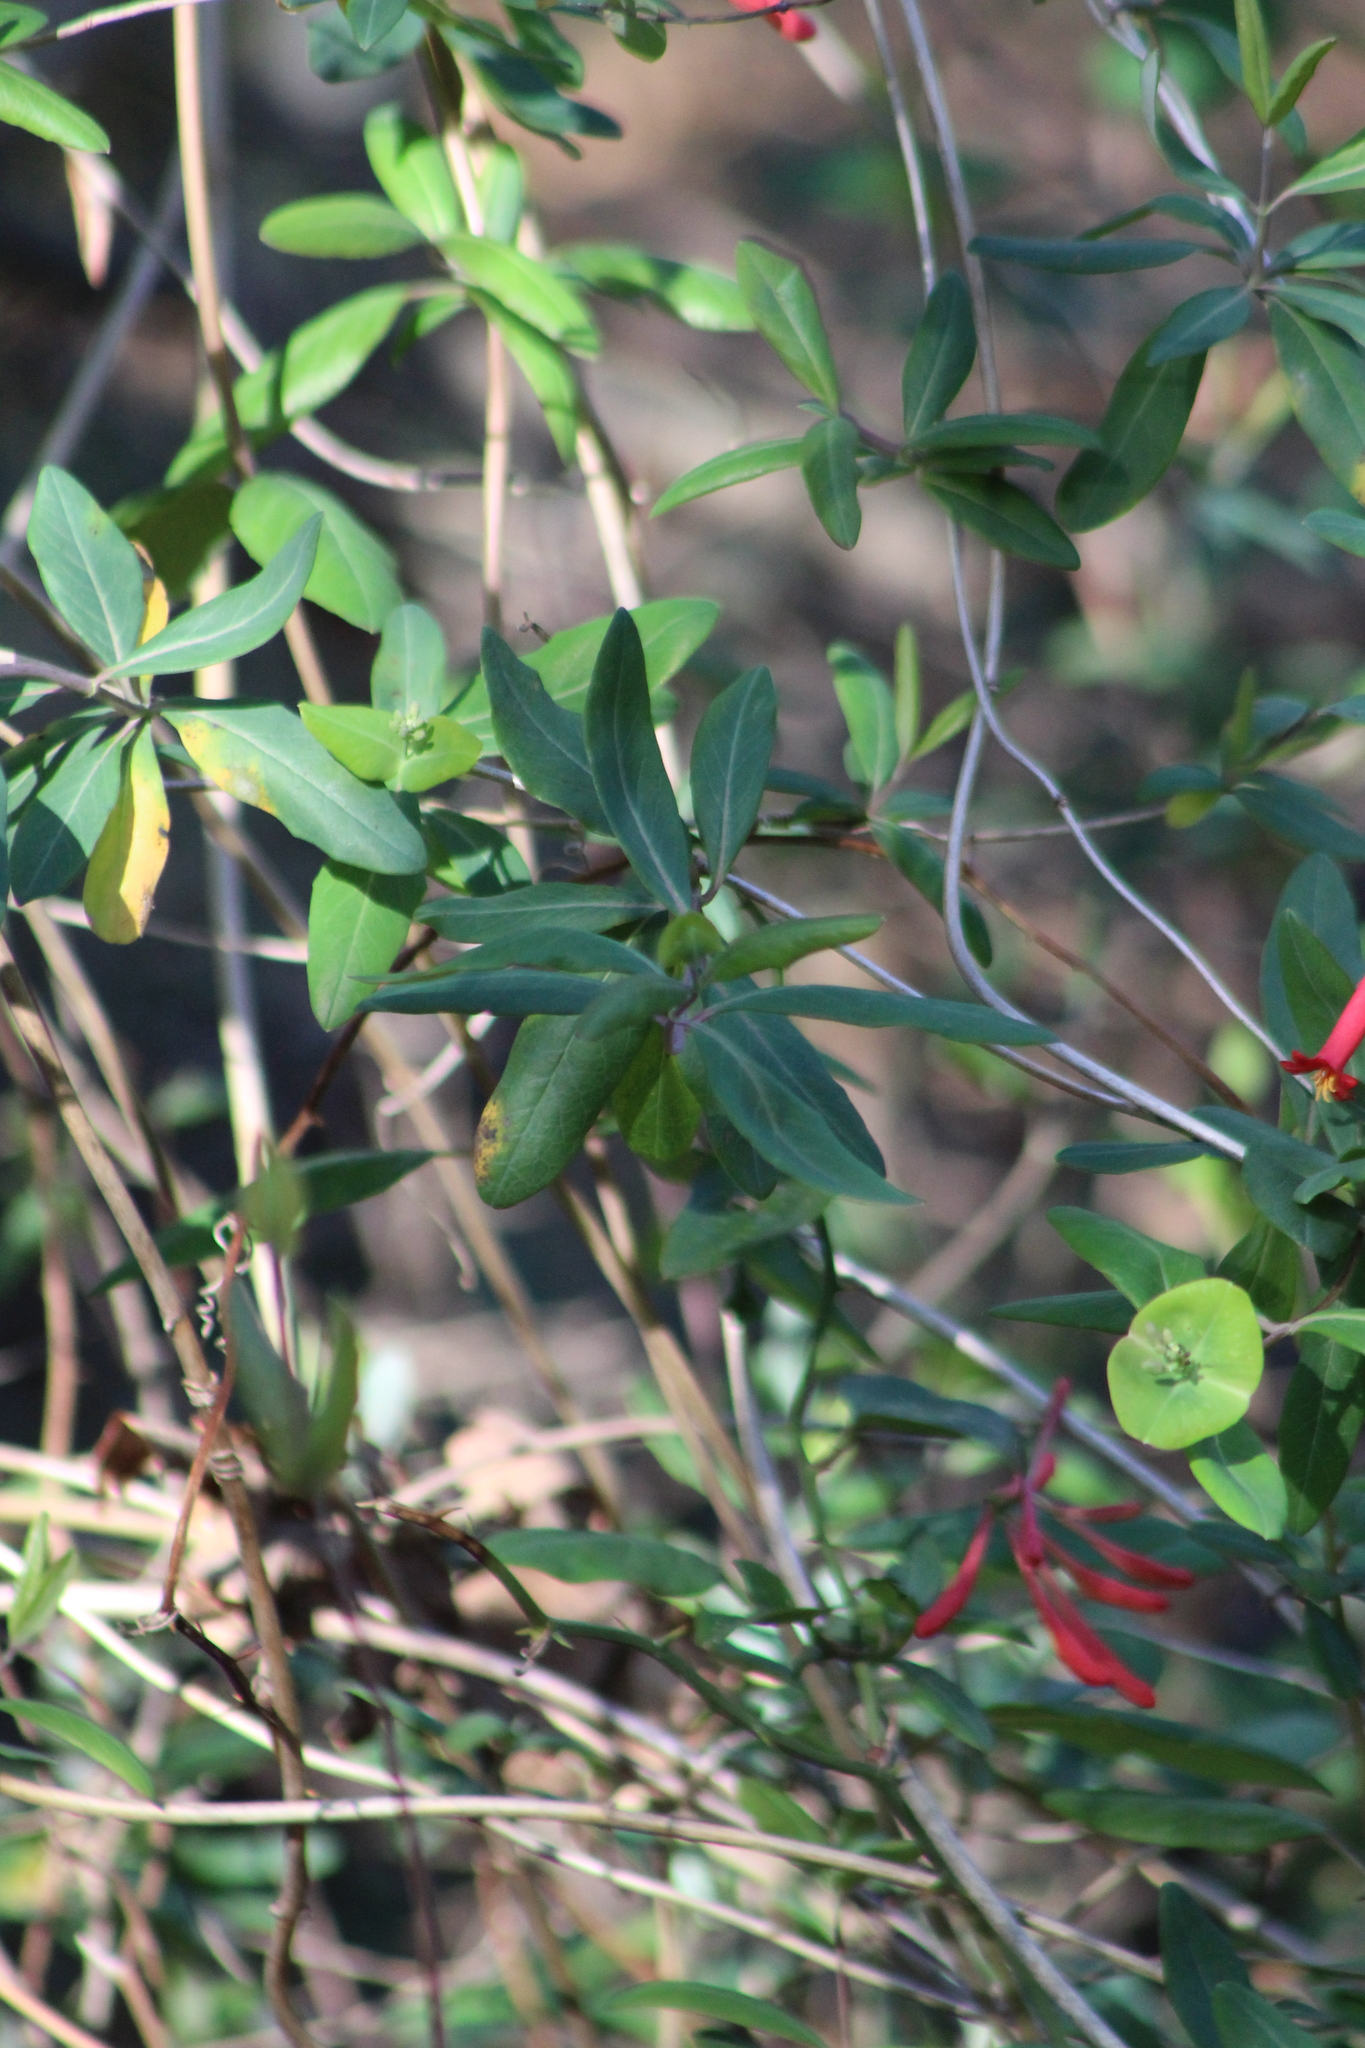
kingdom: Plantae
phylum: Tracheophyta
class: Magnoliopsida
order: Dipsacales
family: Caprifoliaceae
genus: Lonicera
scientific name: Lonicera sempervirens
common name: Coral honeysuckle
